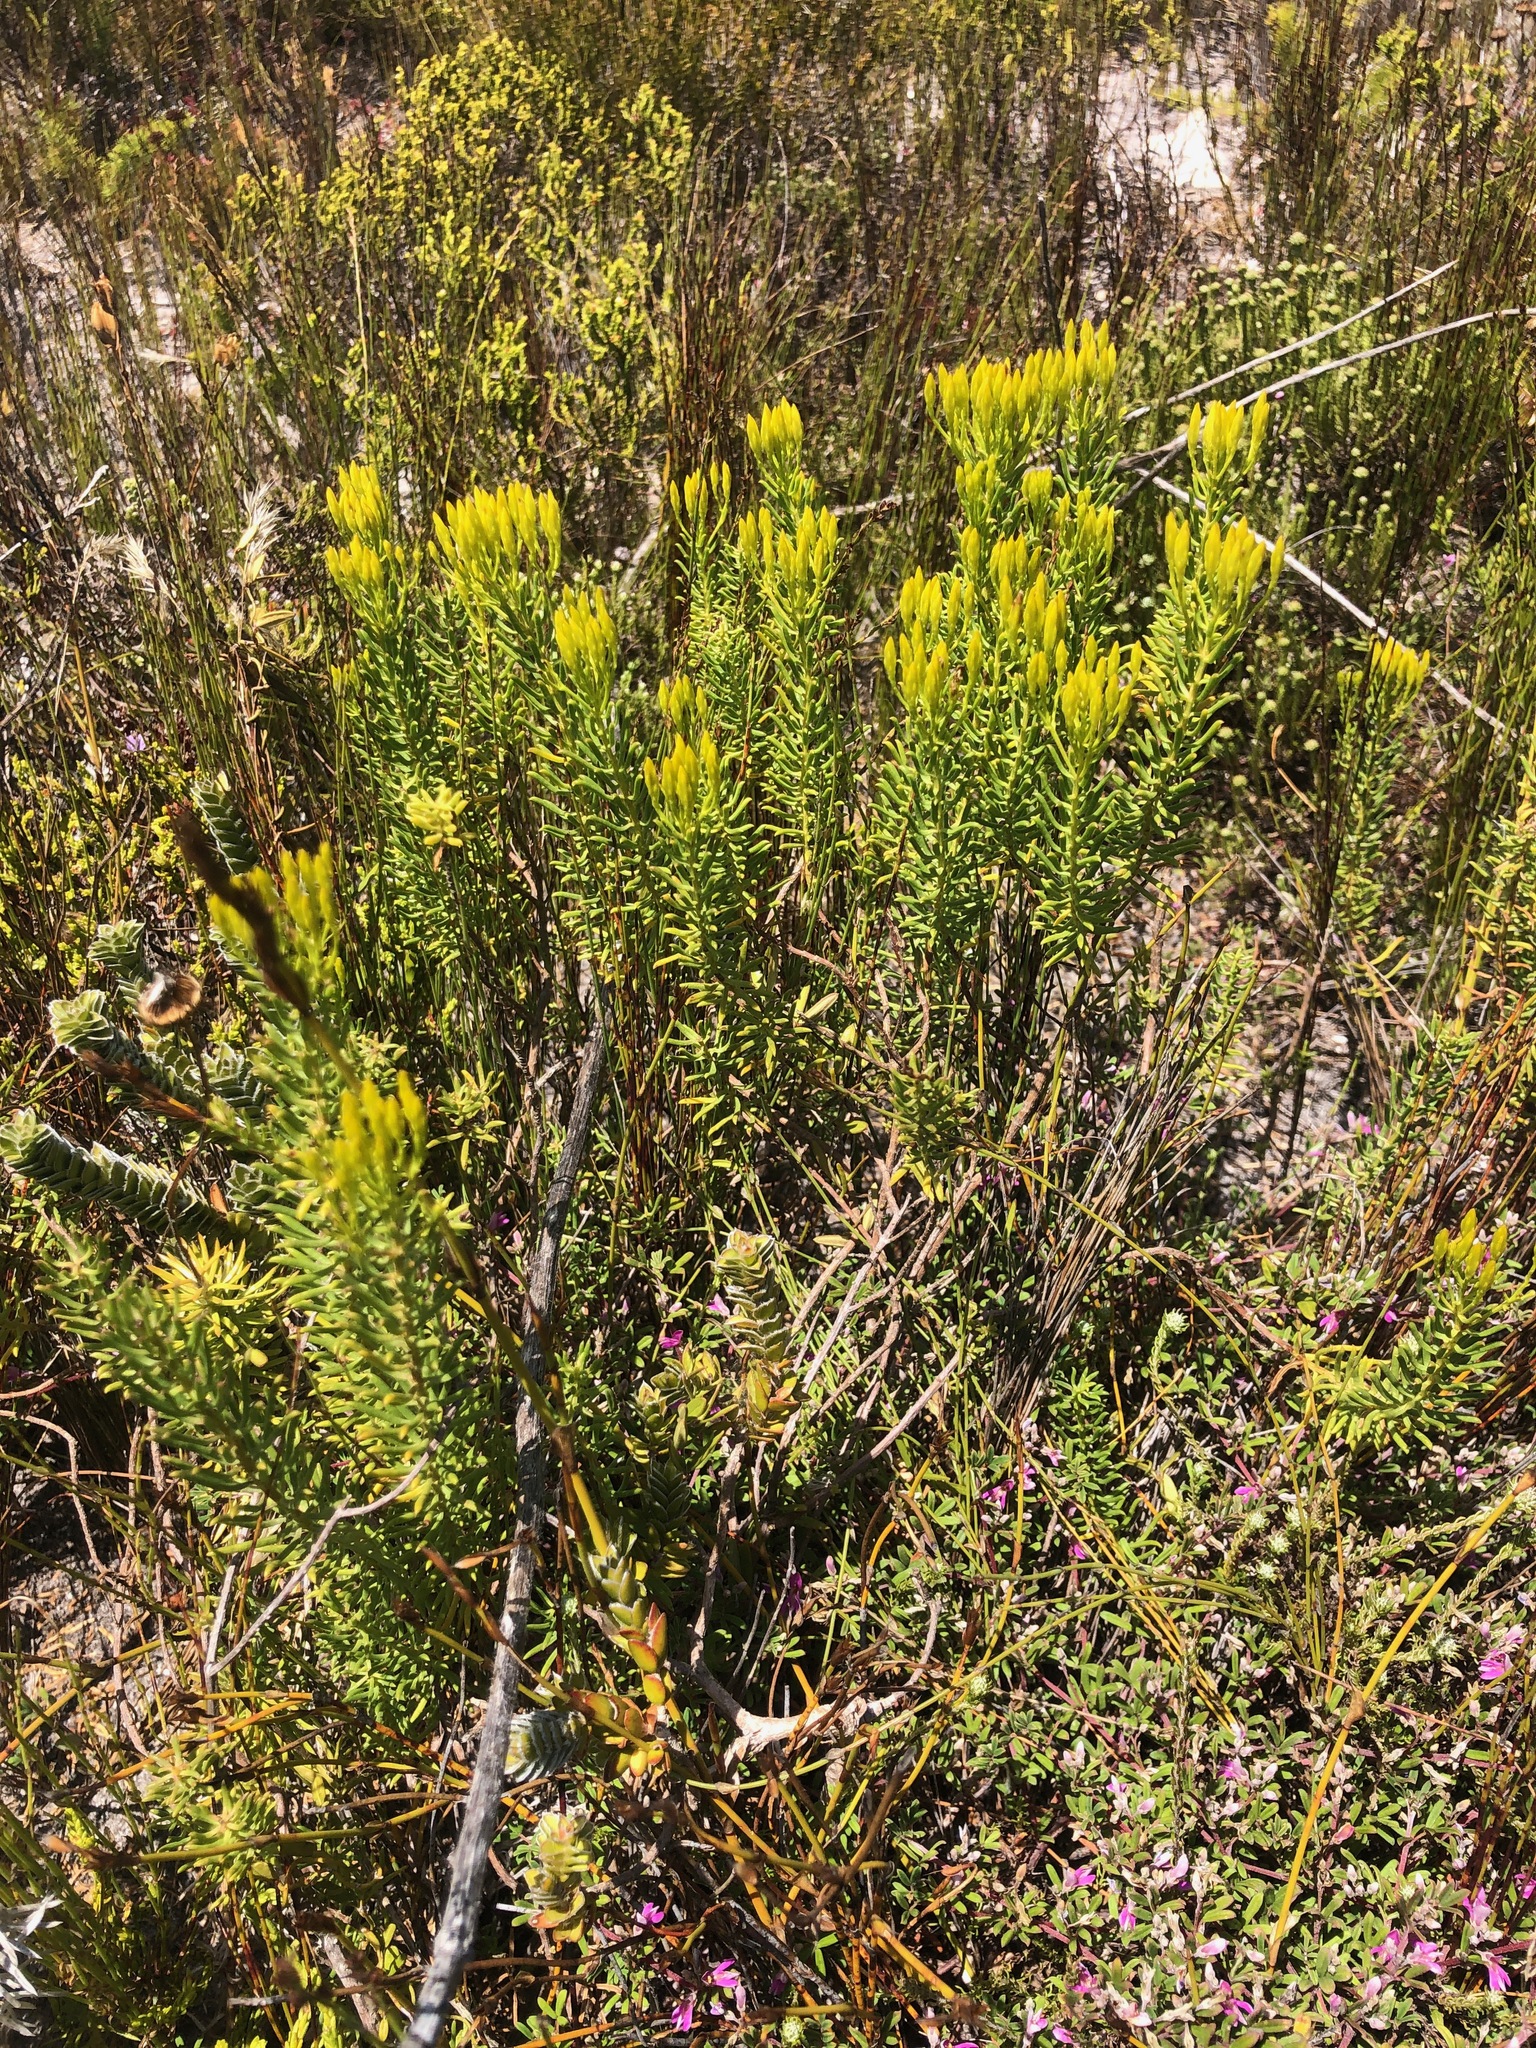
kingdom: Plantae
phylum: Tracheophyta
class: Magnoliopsida
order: Asterales
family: Asteraceae
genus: Pteronia
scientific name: Pteronia uncinata
